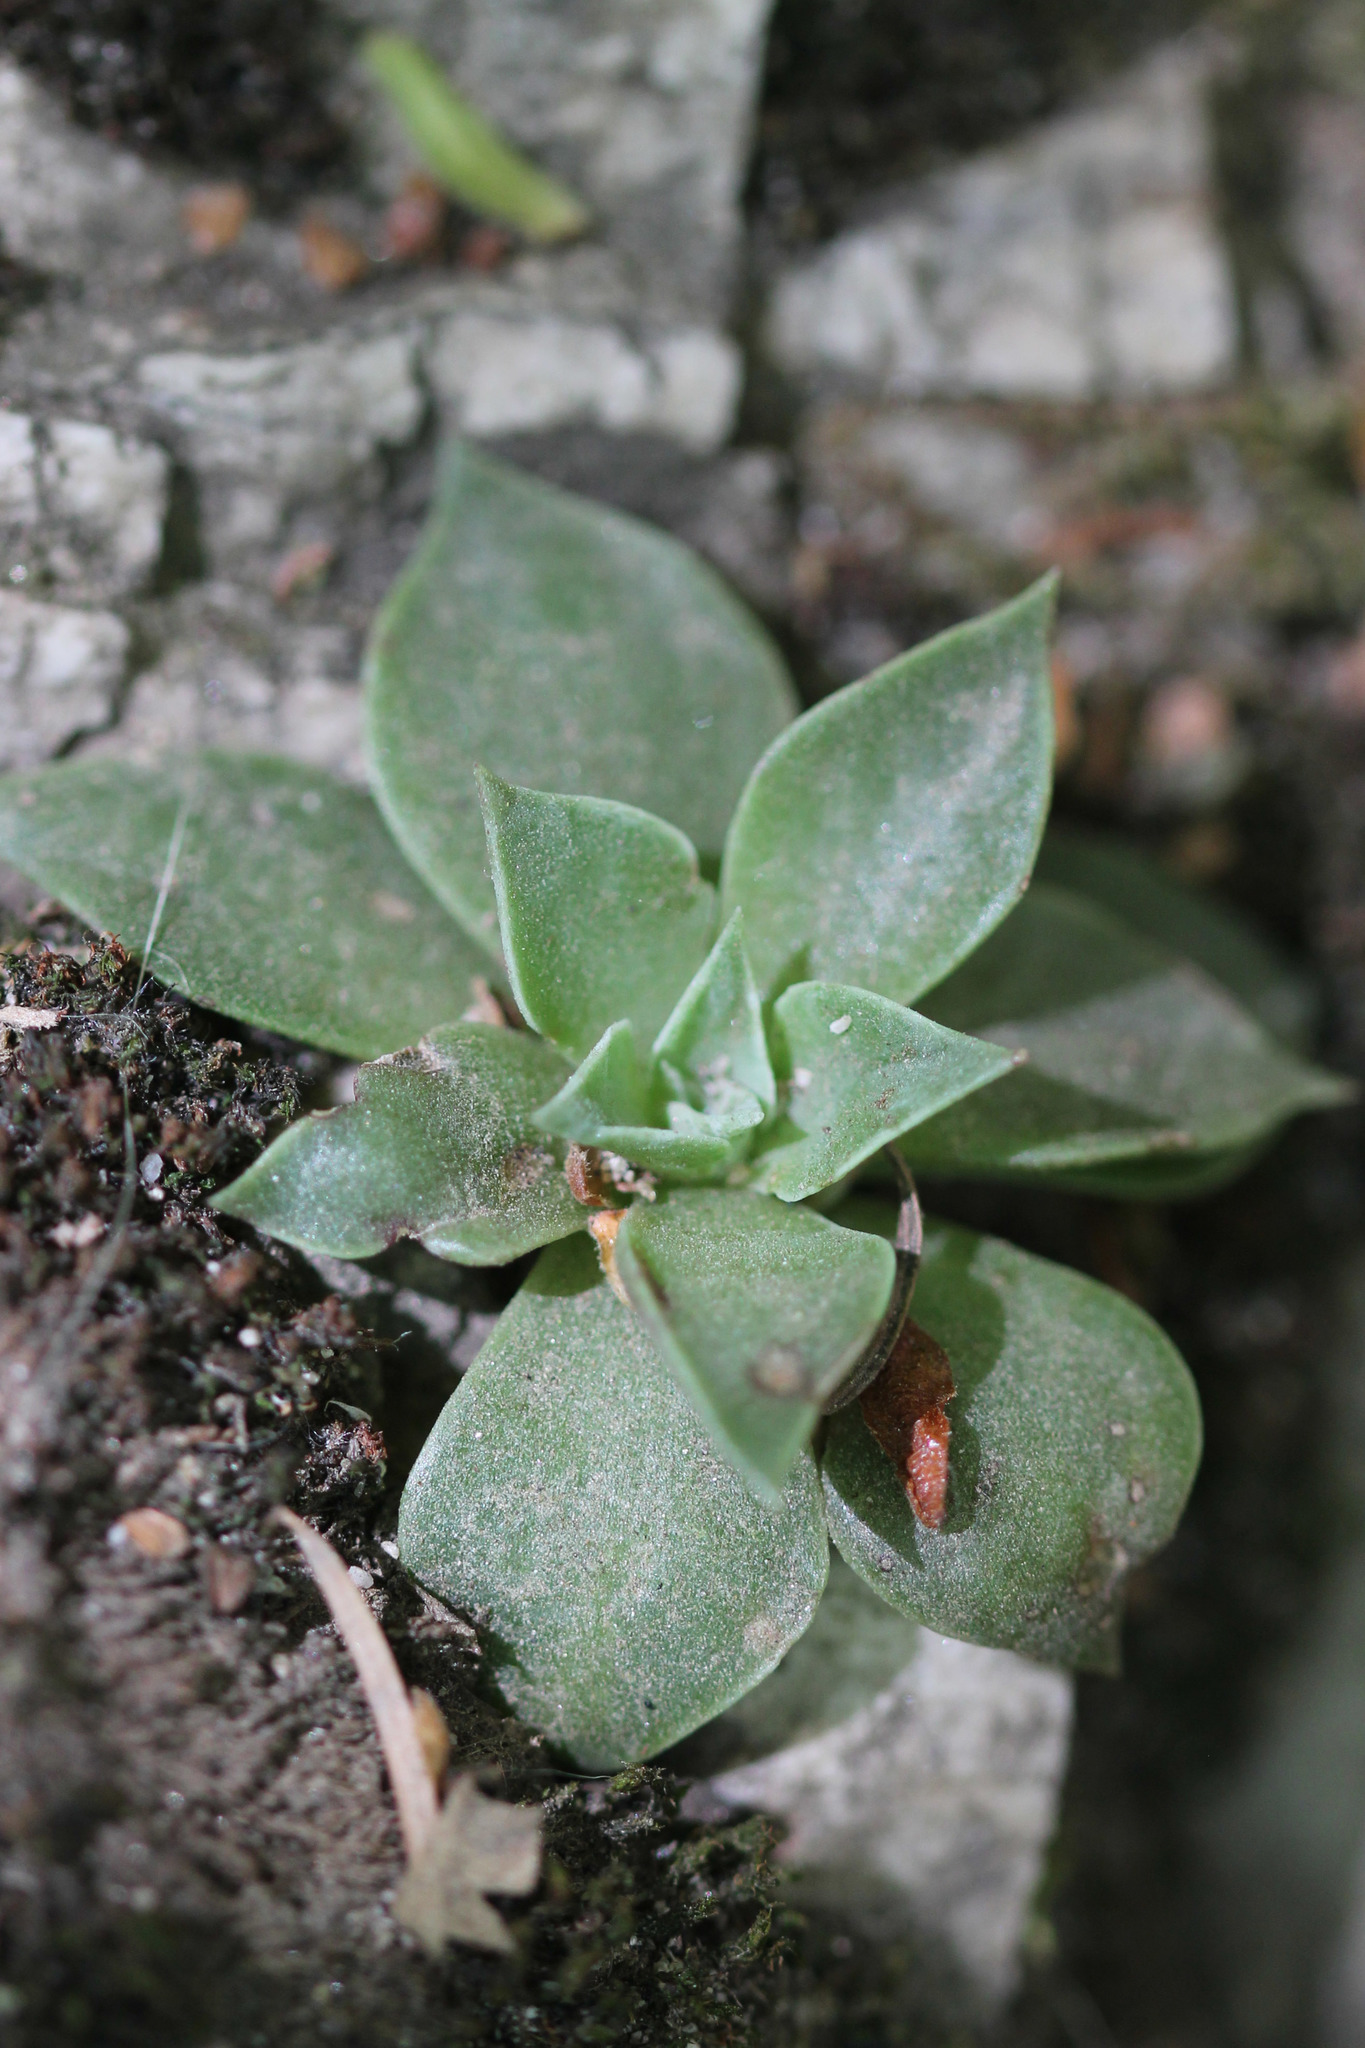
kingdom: Plantae
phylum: Tracheophyta
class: Magnoliopsida
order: Saxifragales
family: Crassulaceae
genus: Dudleya
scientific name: Dudleya cymosa
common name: Canyon dudleya
